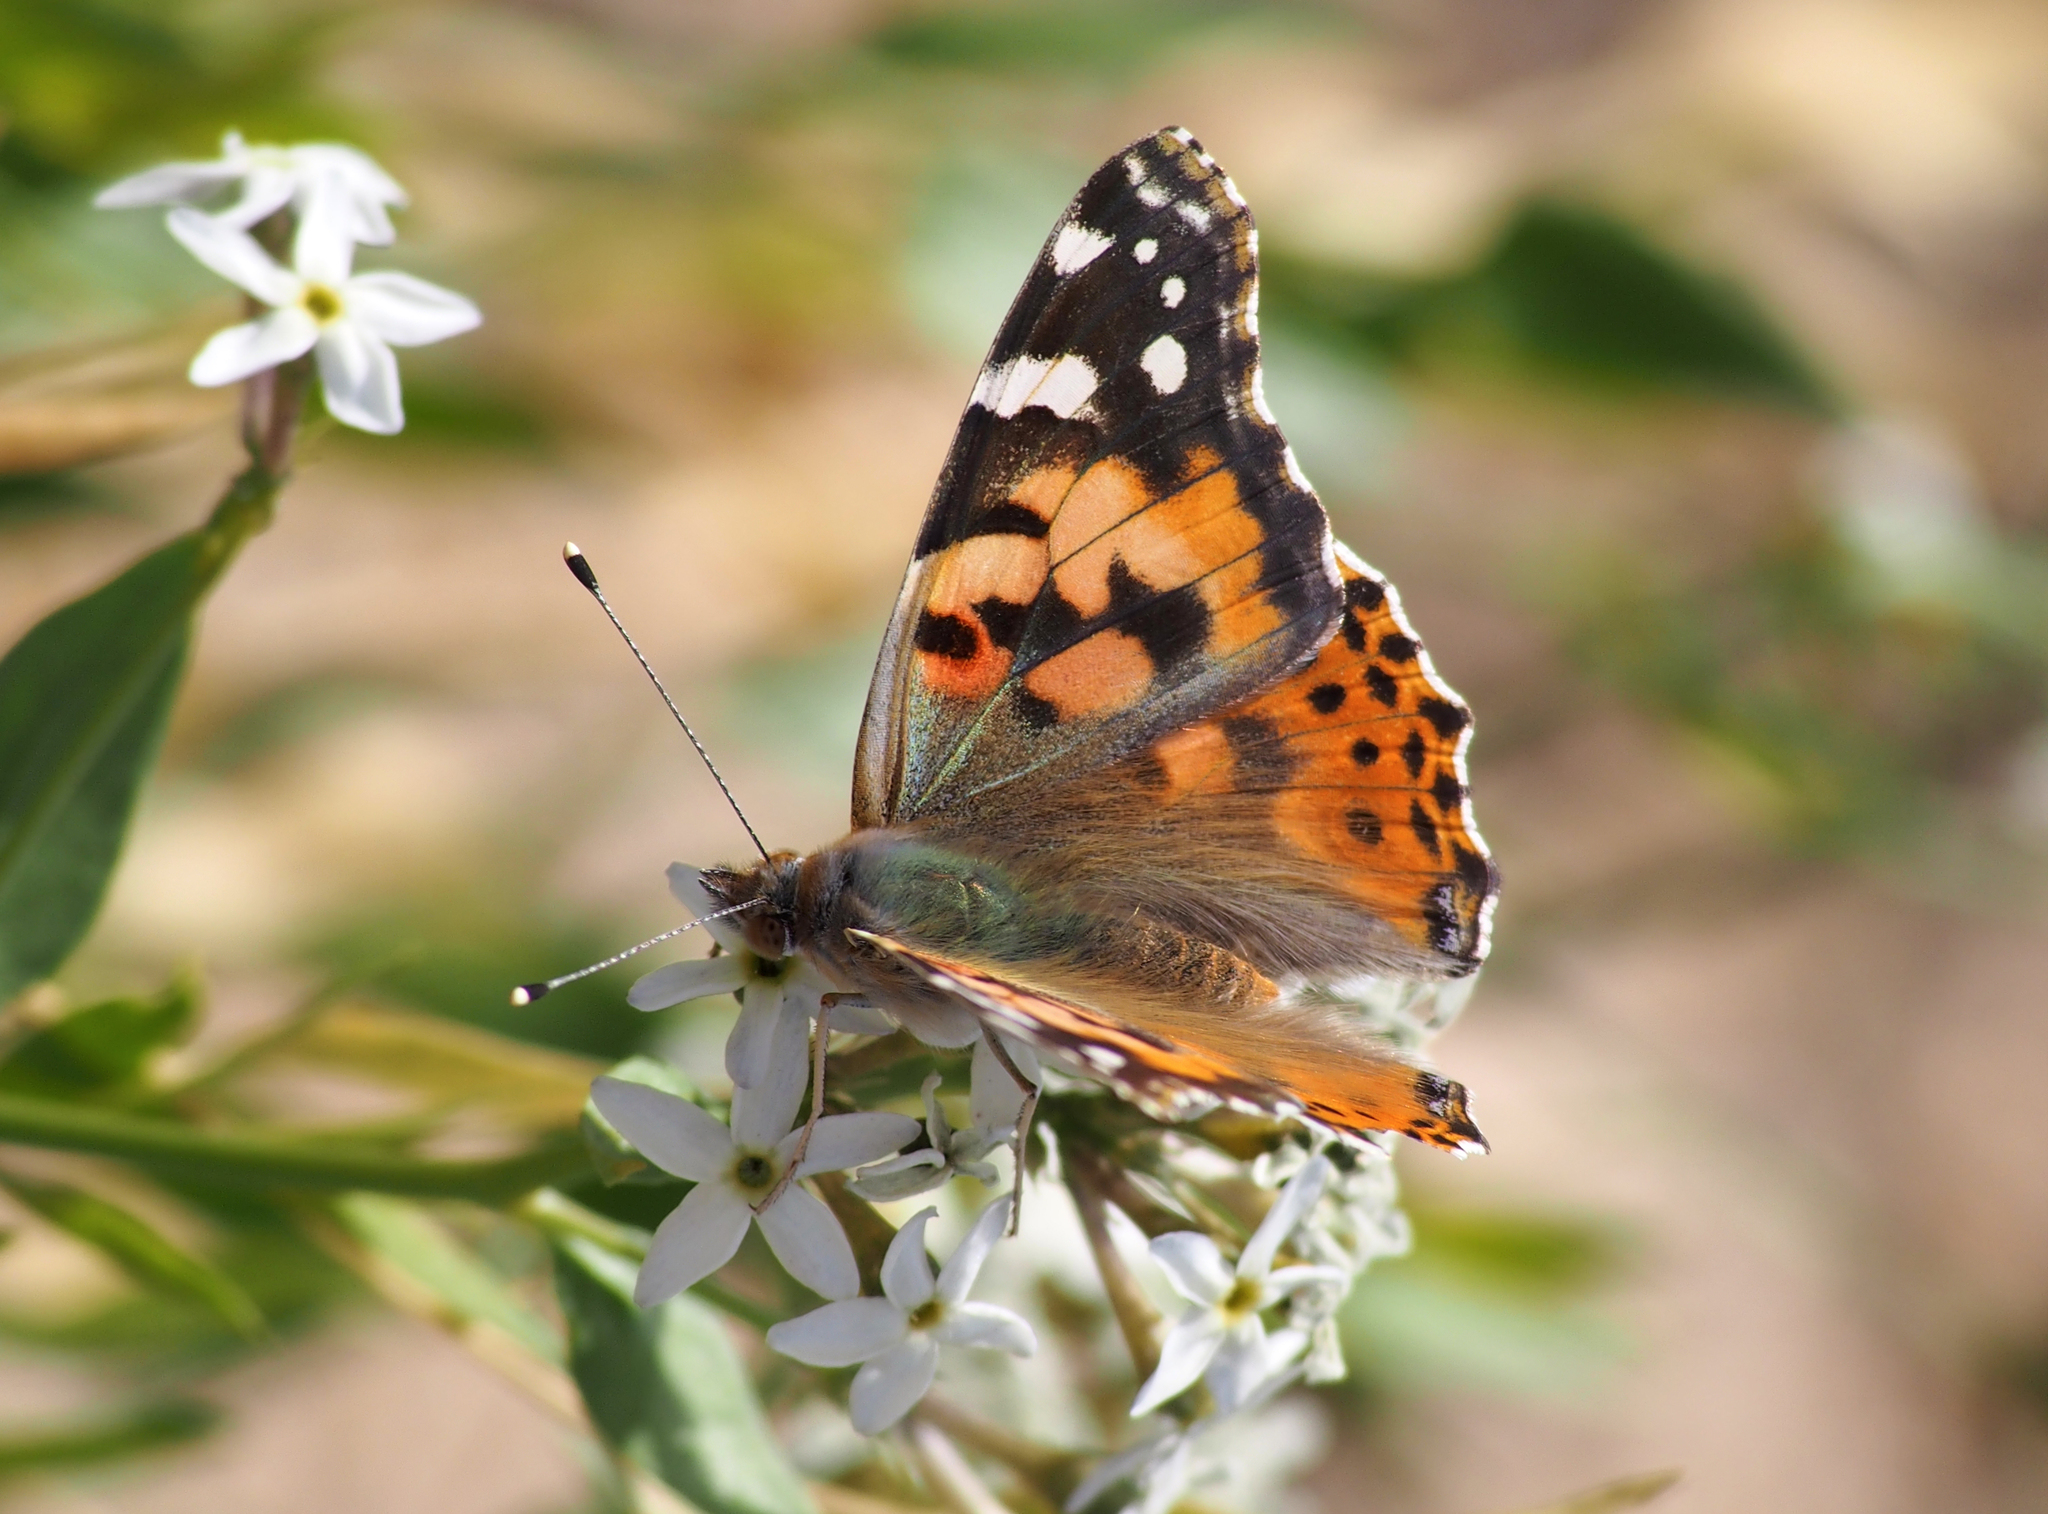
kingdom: Animalia
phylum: Arthropoda
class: Insecta
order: Lepidoptera
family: Nymphalidae
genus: Vanessa
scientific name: Vanessa cardui
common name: Painted lady
